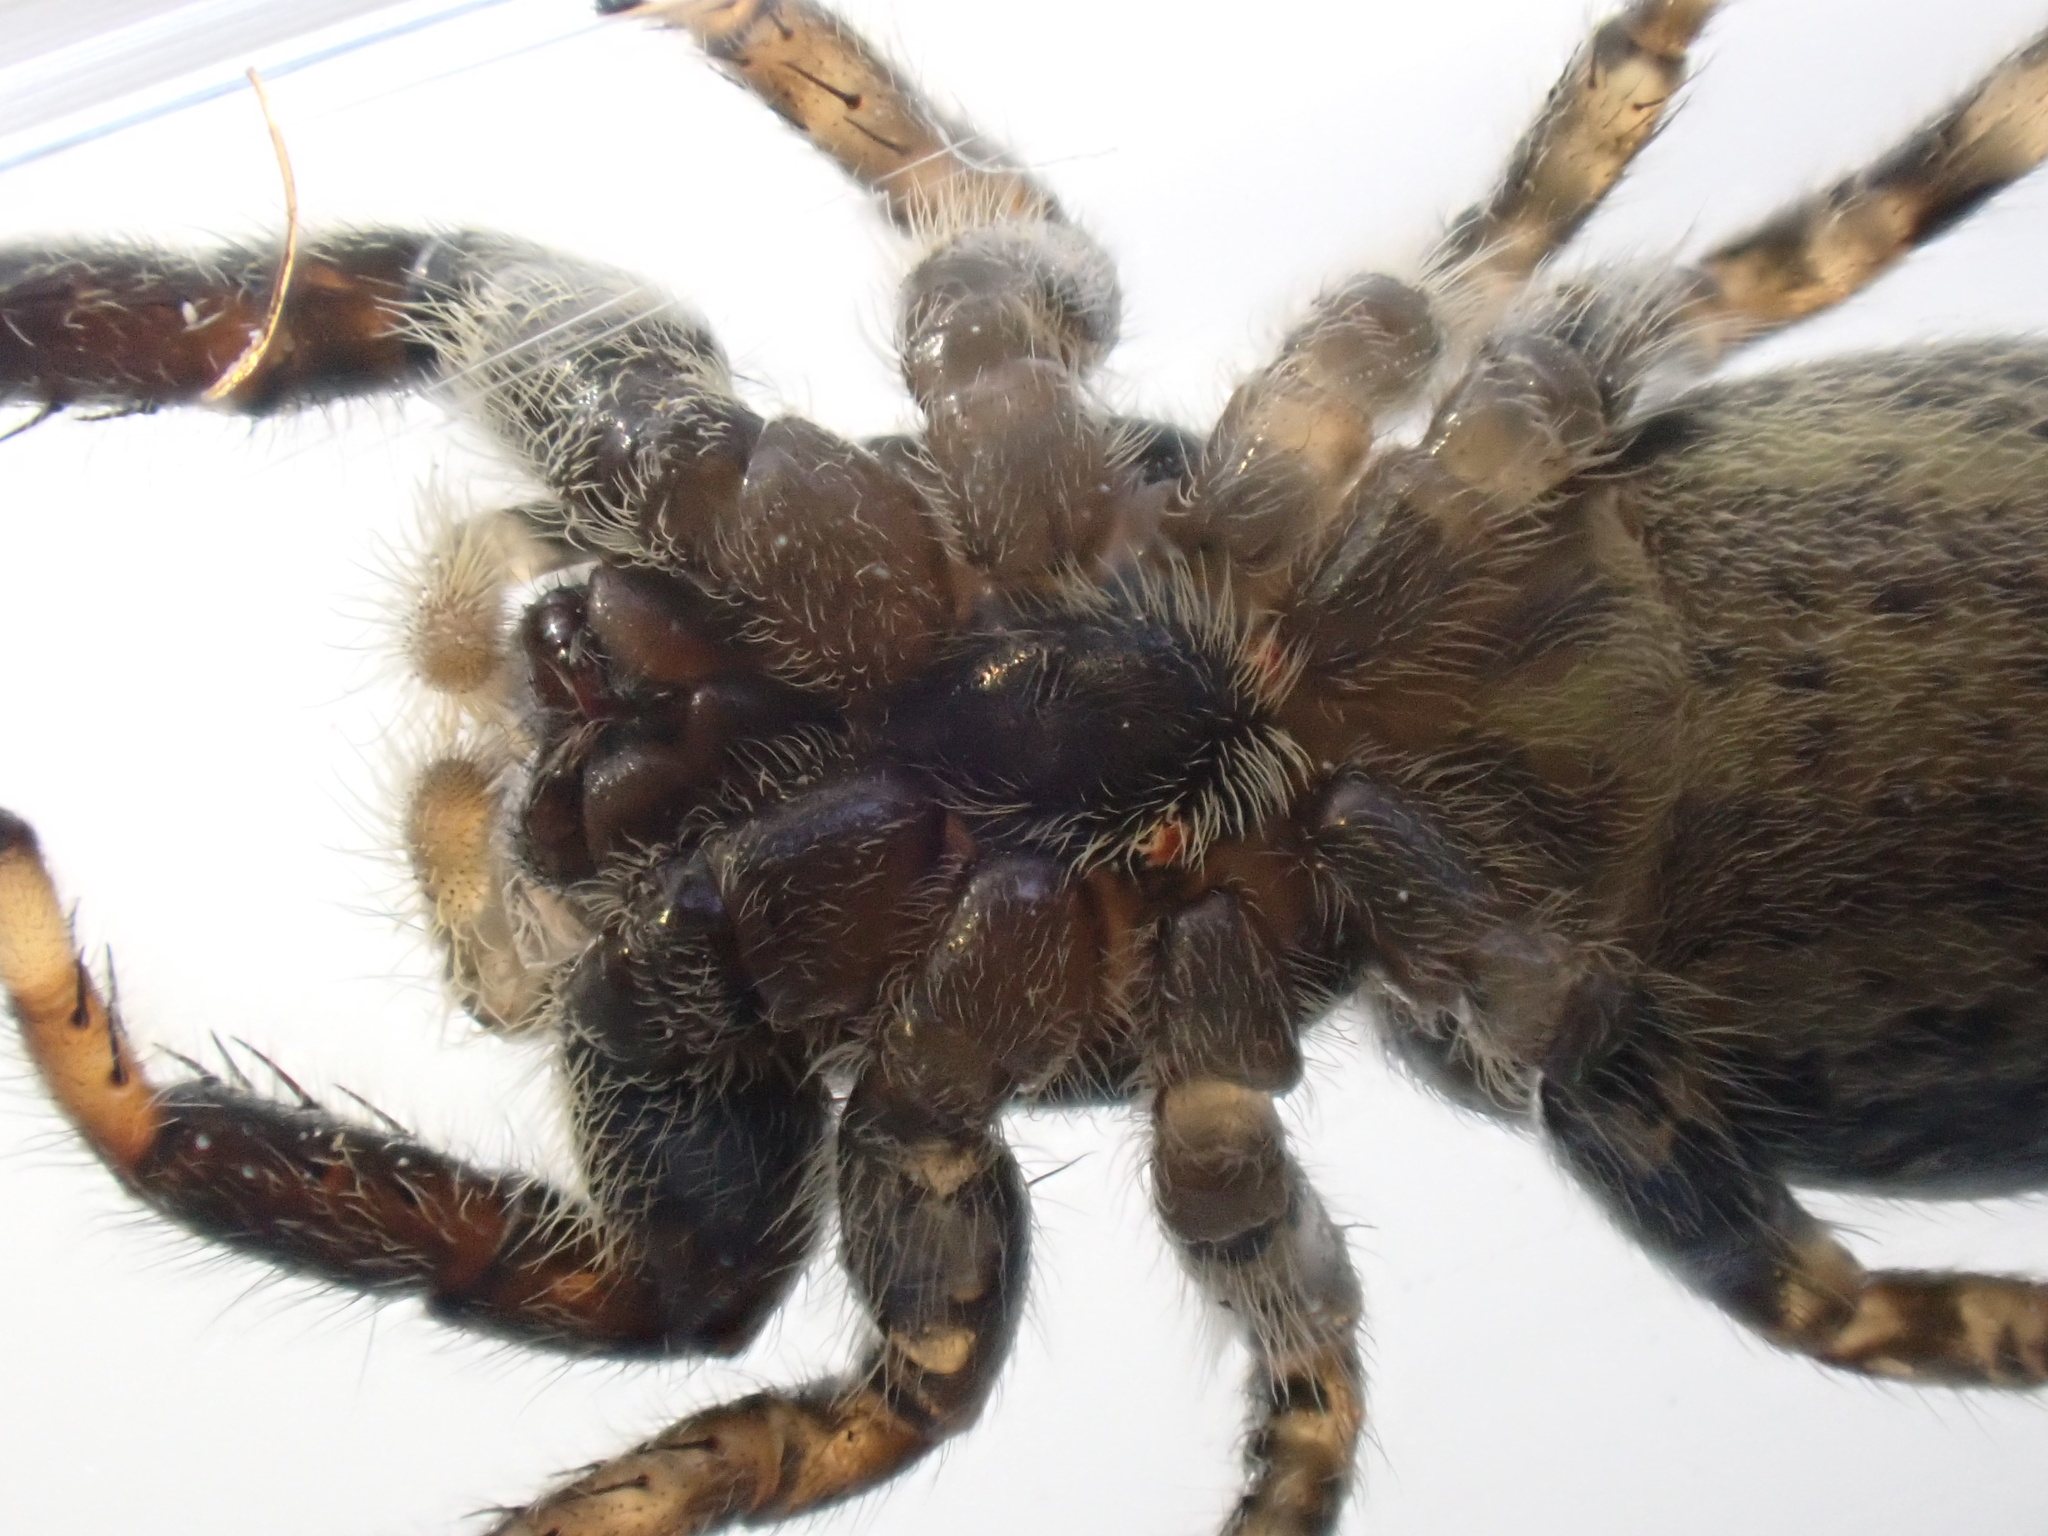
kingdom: Animalia
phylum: Arthropoda
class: Arachnida
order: Araneae
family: Salticidae
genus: Marpissa
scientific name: Marpissa muscosa
